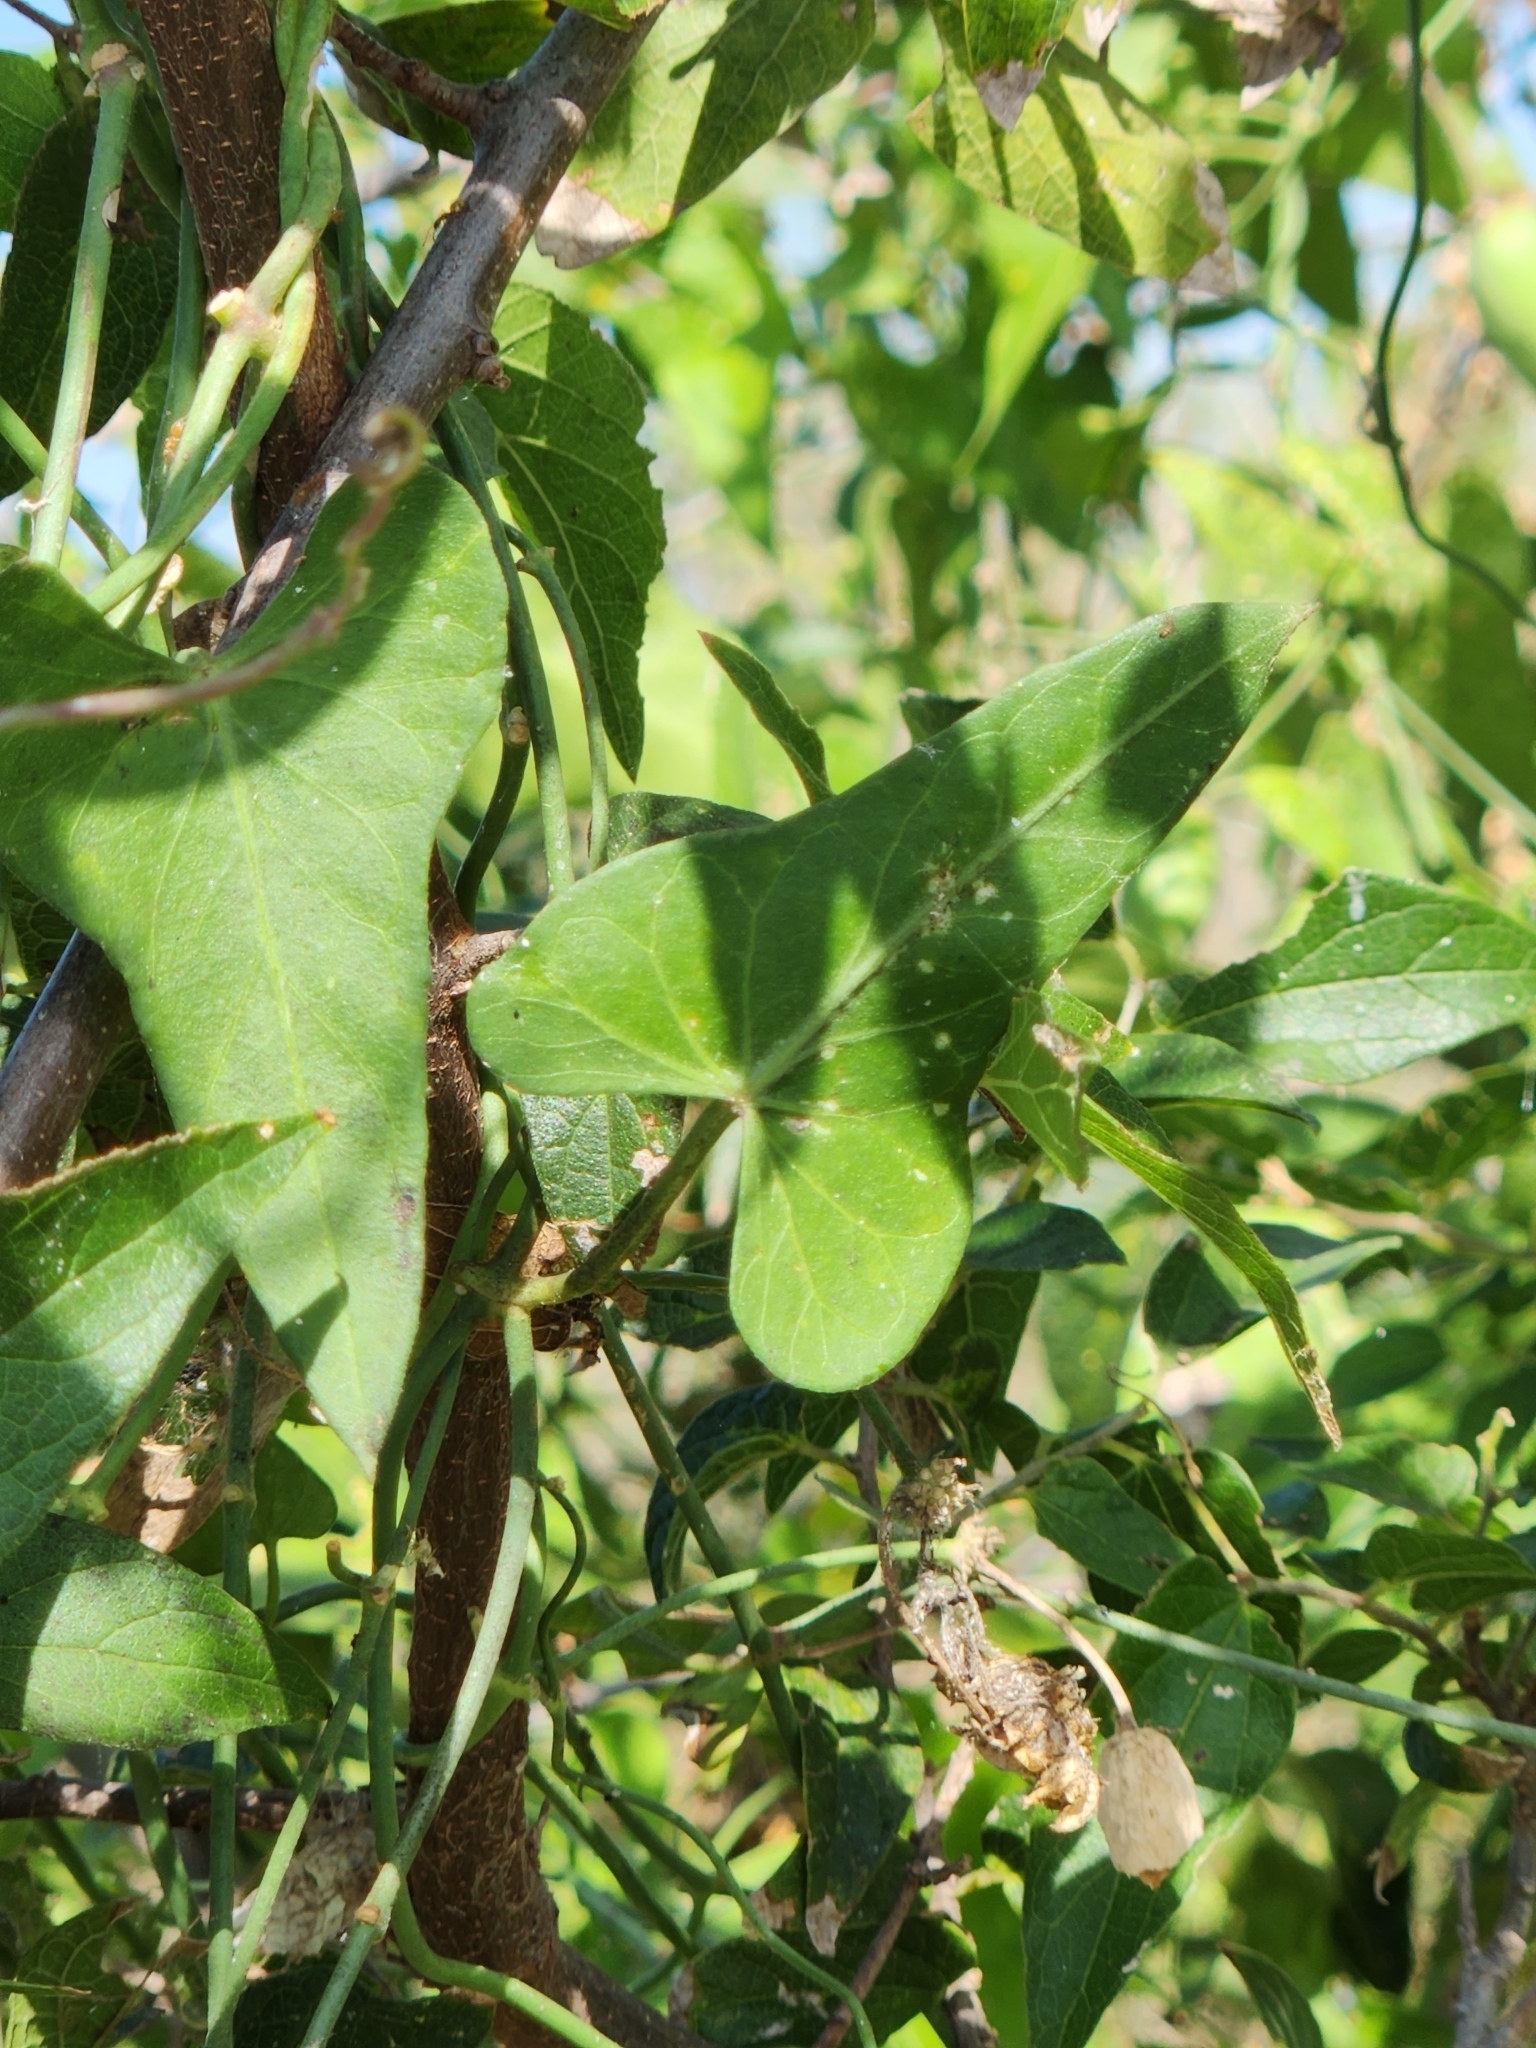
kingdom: Plantae
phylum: Tracheophyta
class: Magnoliopsida
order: Gentianales
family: Apocynaceae
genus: Funastrum
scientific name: Funastrum cynanchoides
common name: Climbing-milkweed
